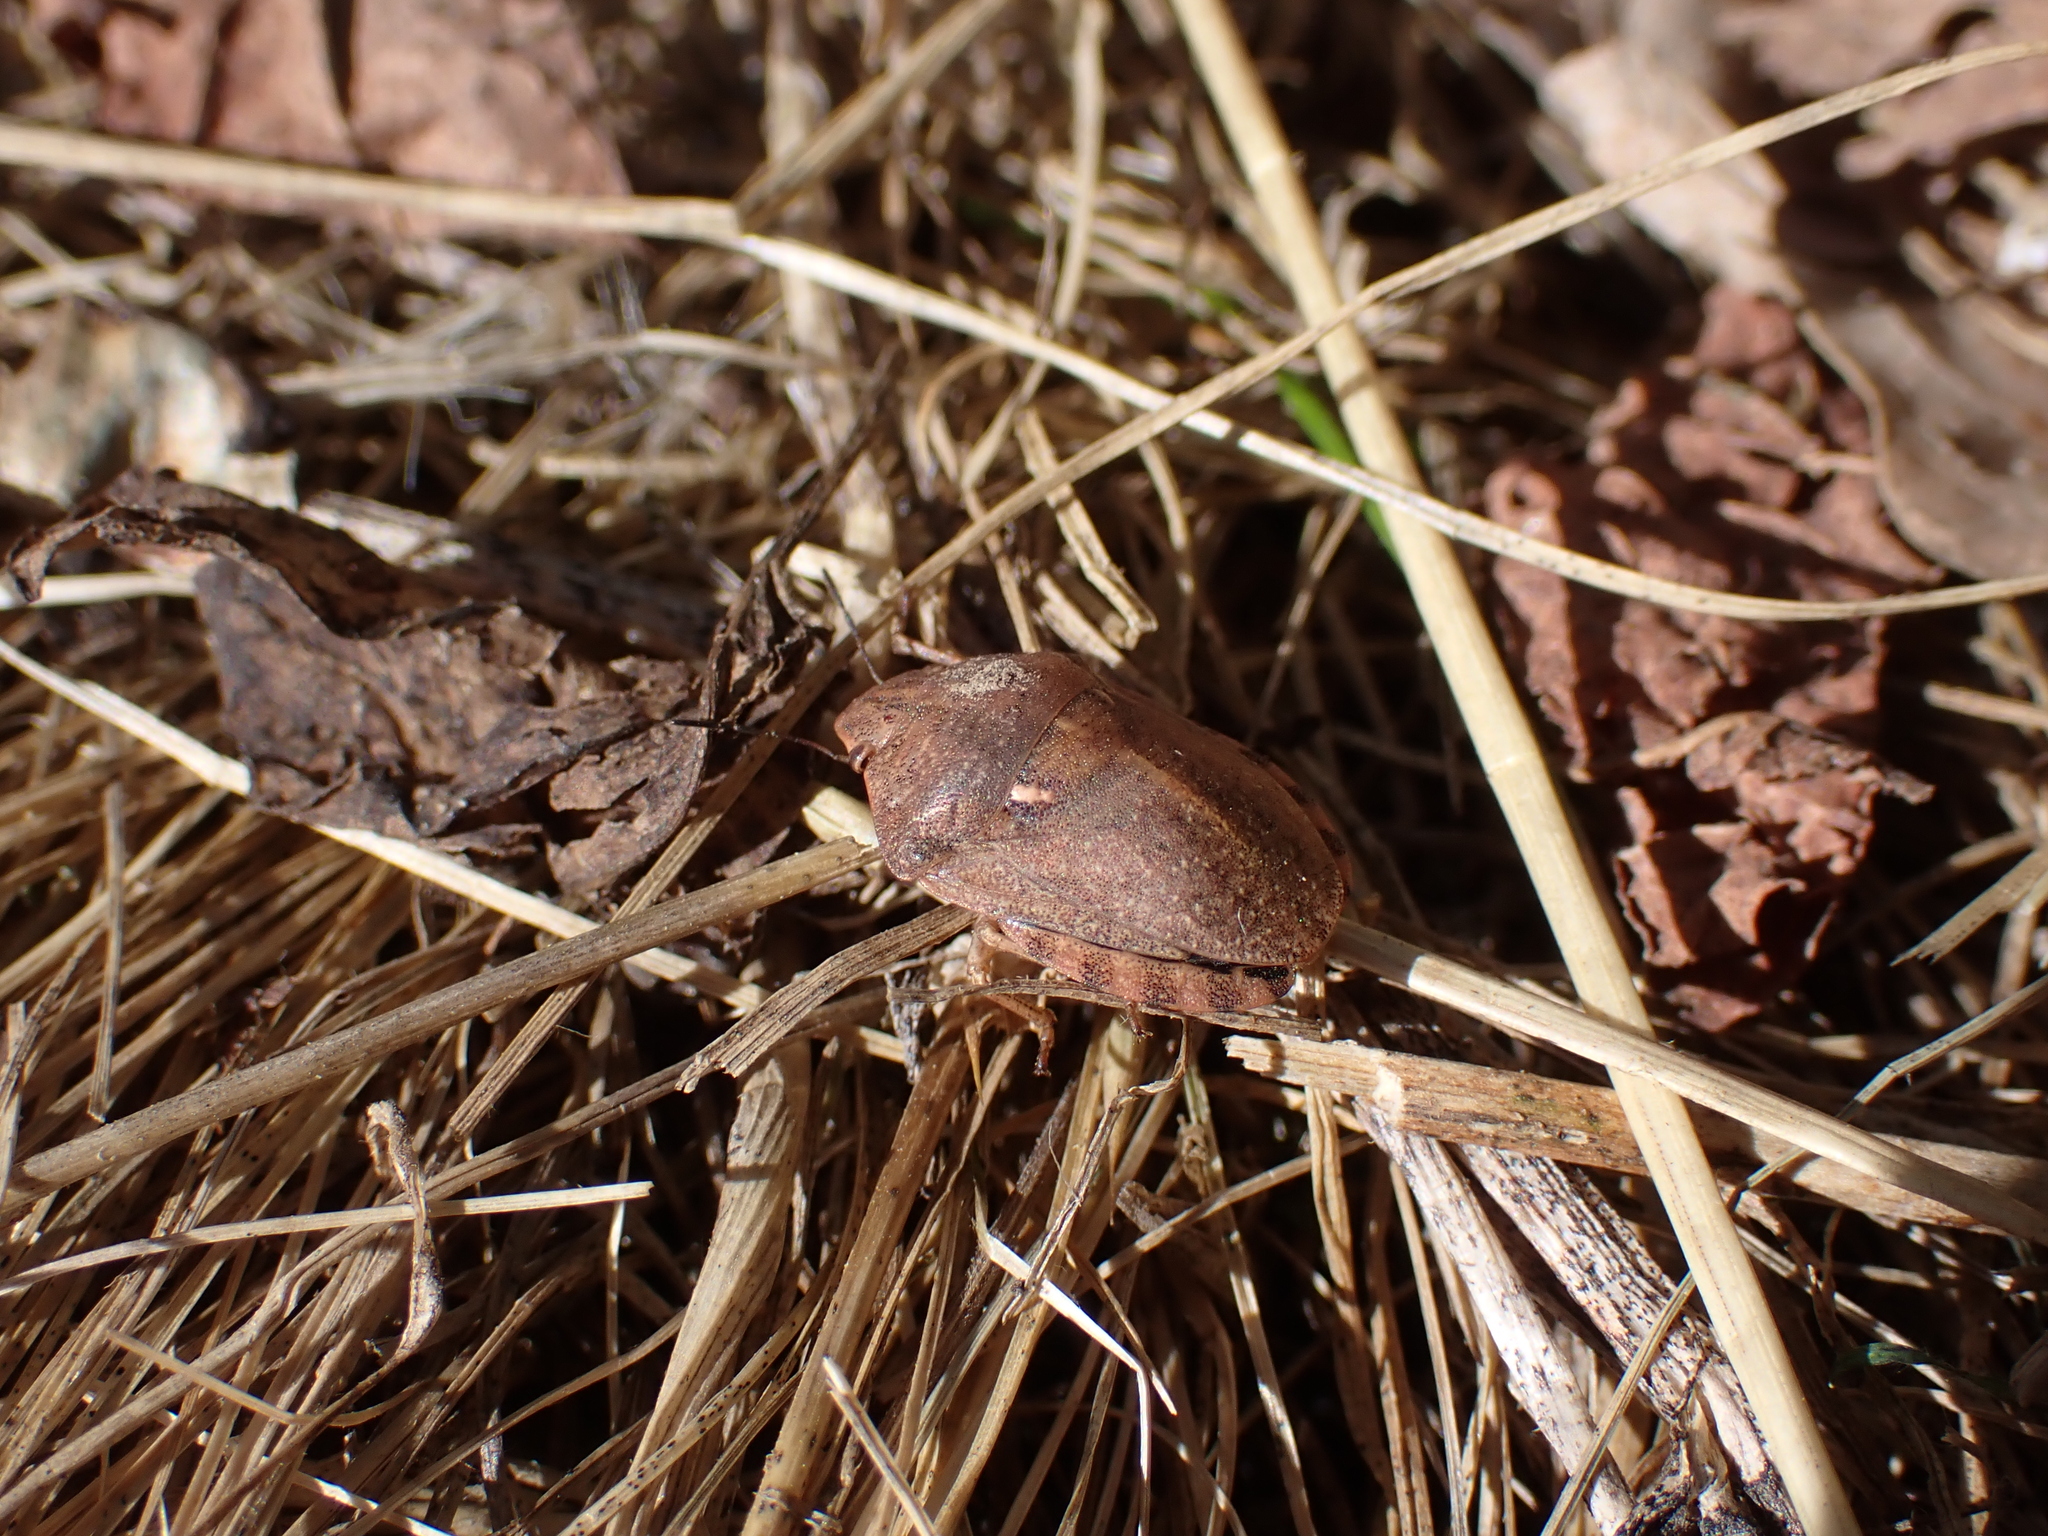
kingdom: Animalia
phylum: Arthropoda
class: Insecta
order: Hemiptera
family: Scutelleridae
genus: Eurygaster
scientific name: Eurygaster maura
